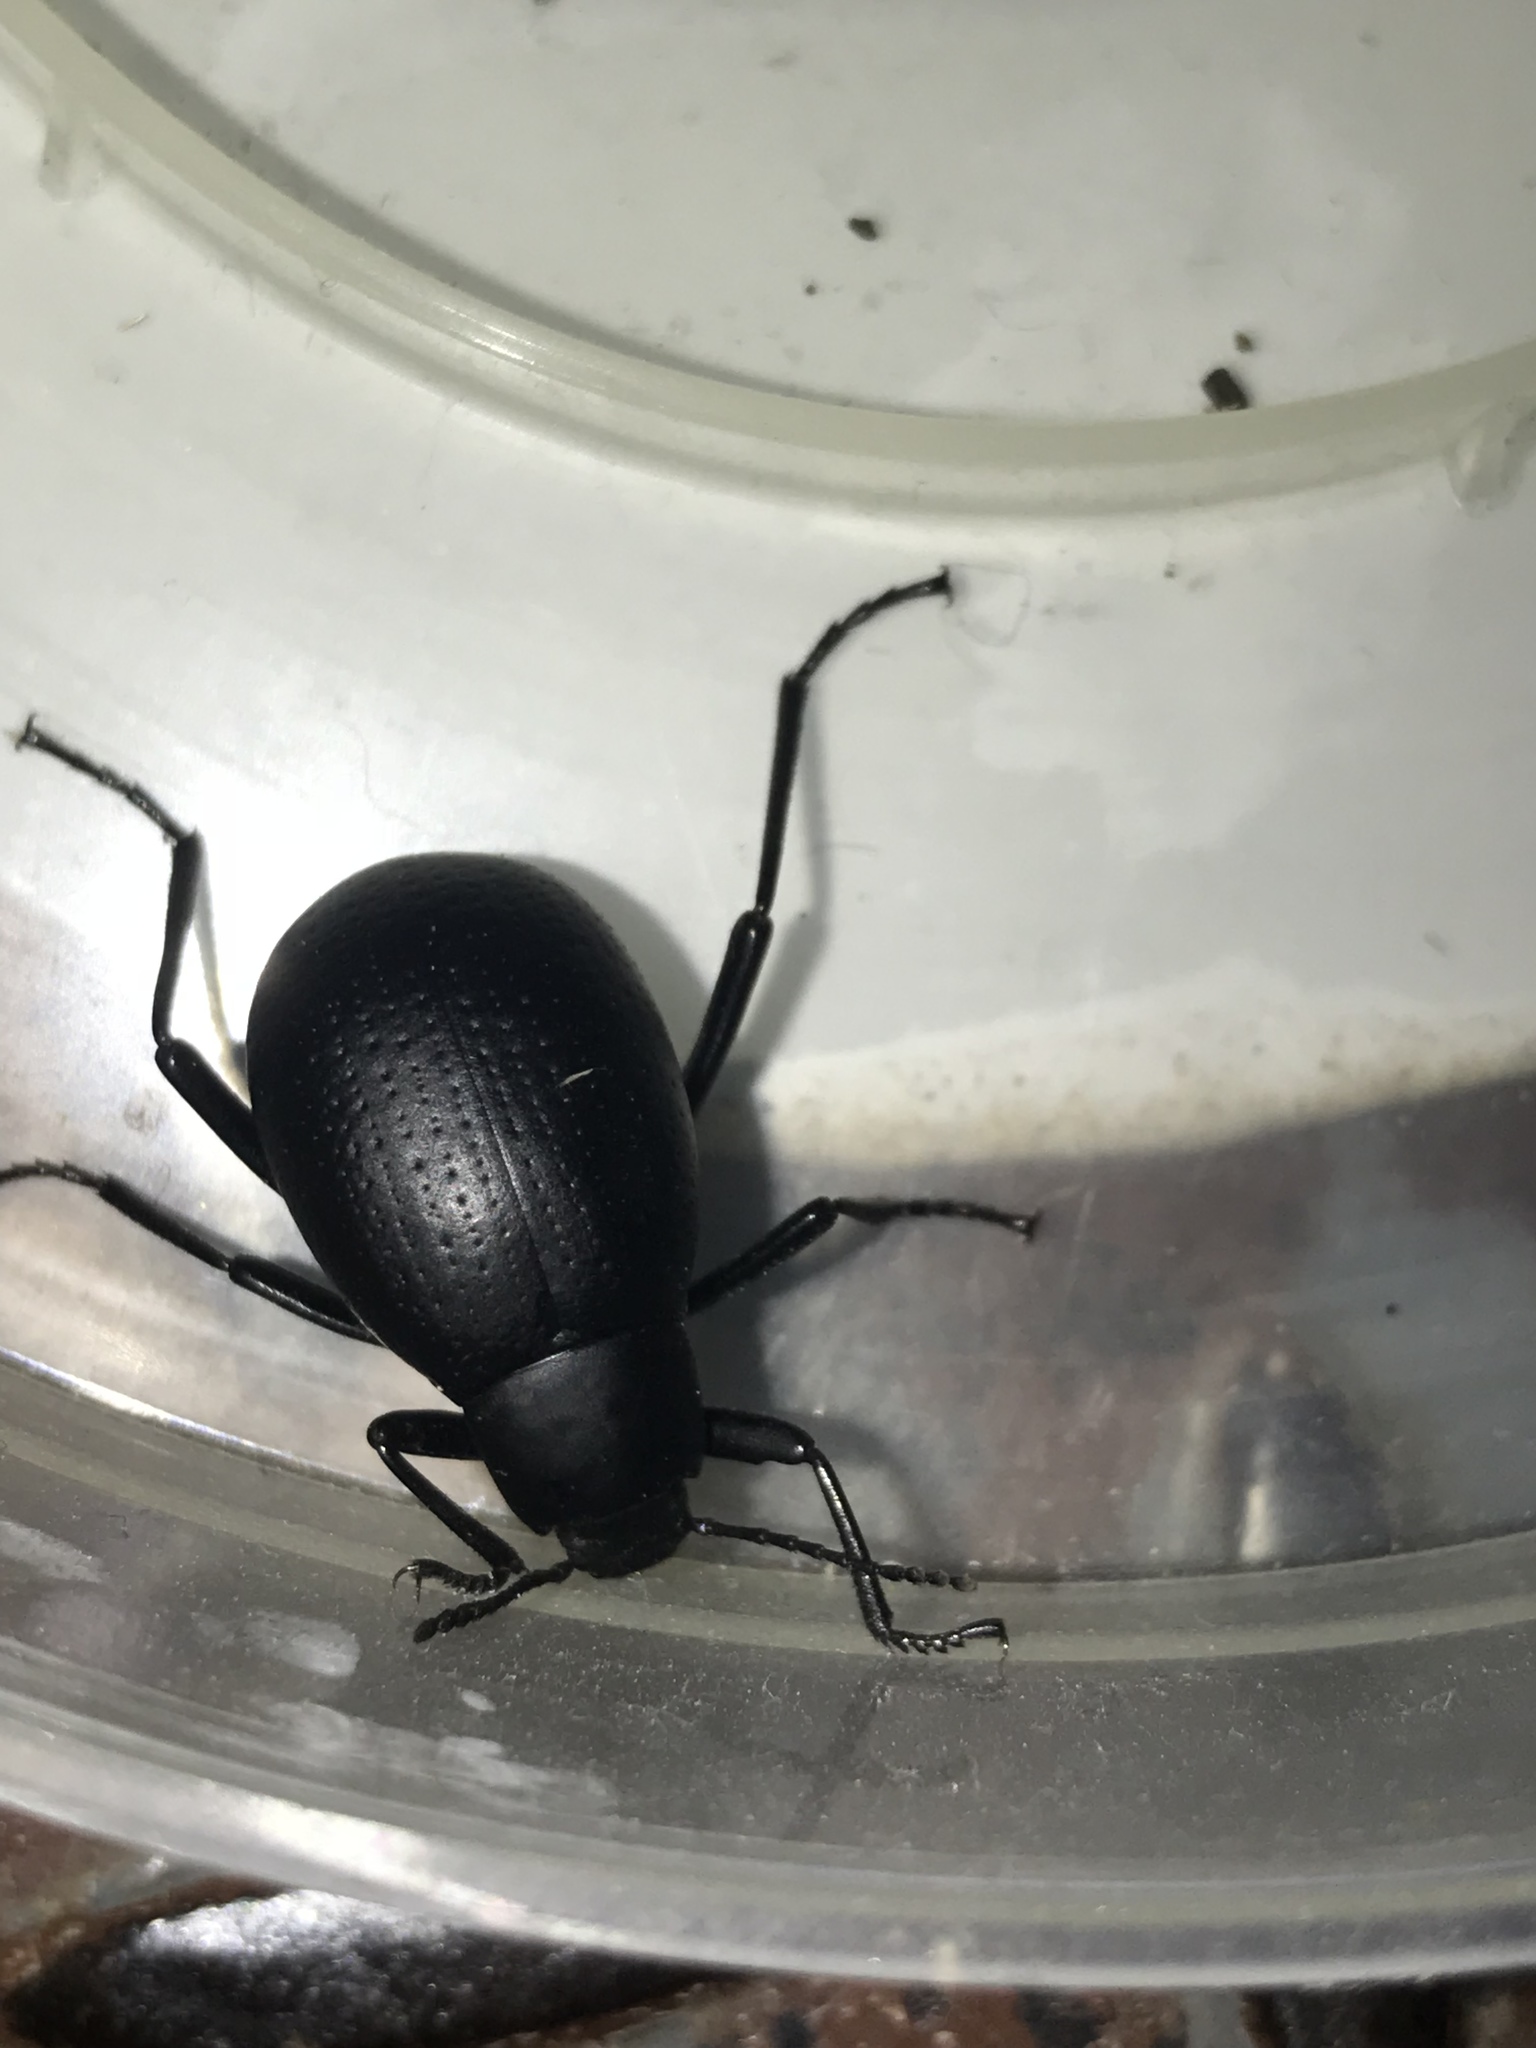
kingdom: Animalia
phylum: Arthropoda
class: Insecta
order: Coleoptera
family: Tenebrionidae
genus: Eleodes
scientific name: Eleodes goryi
